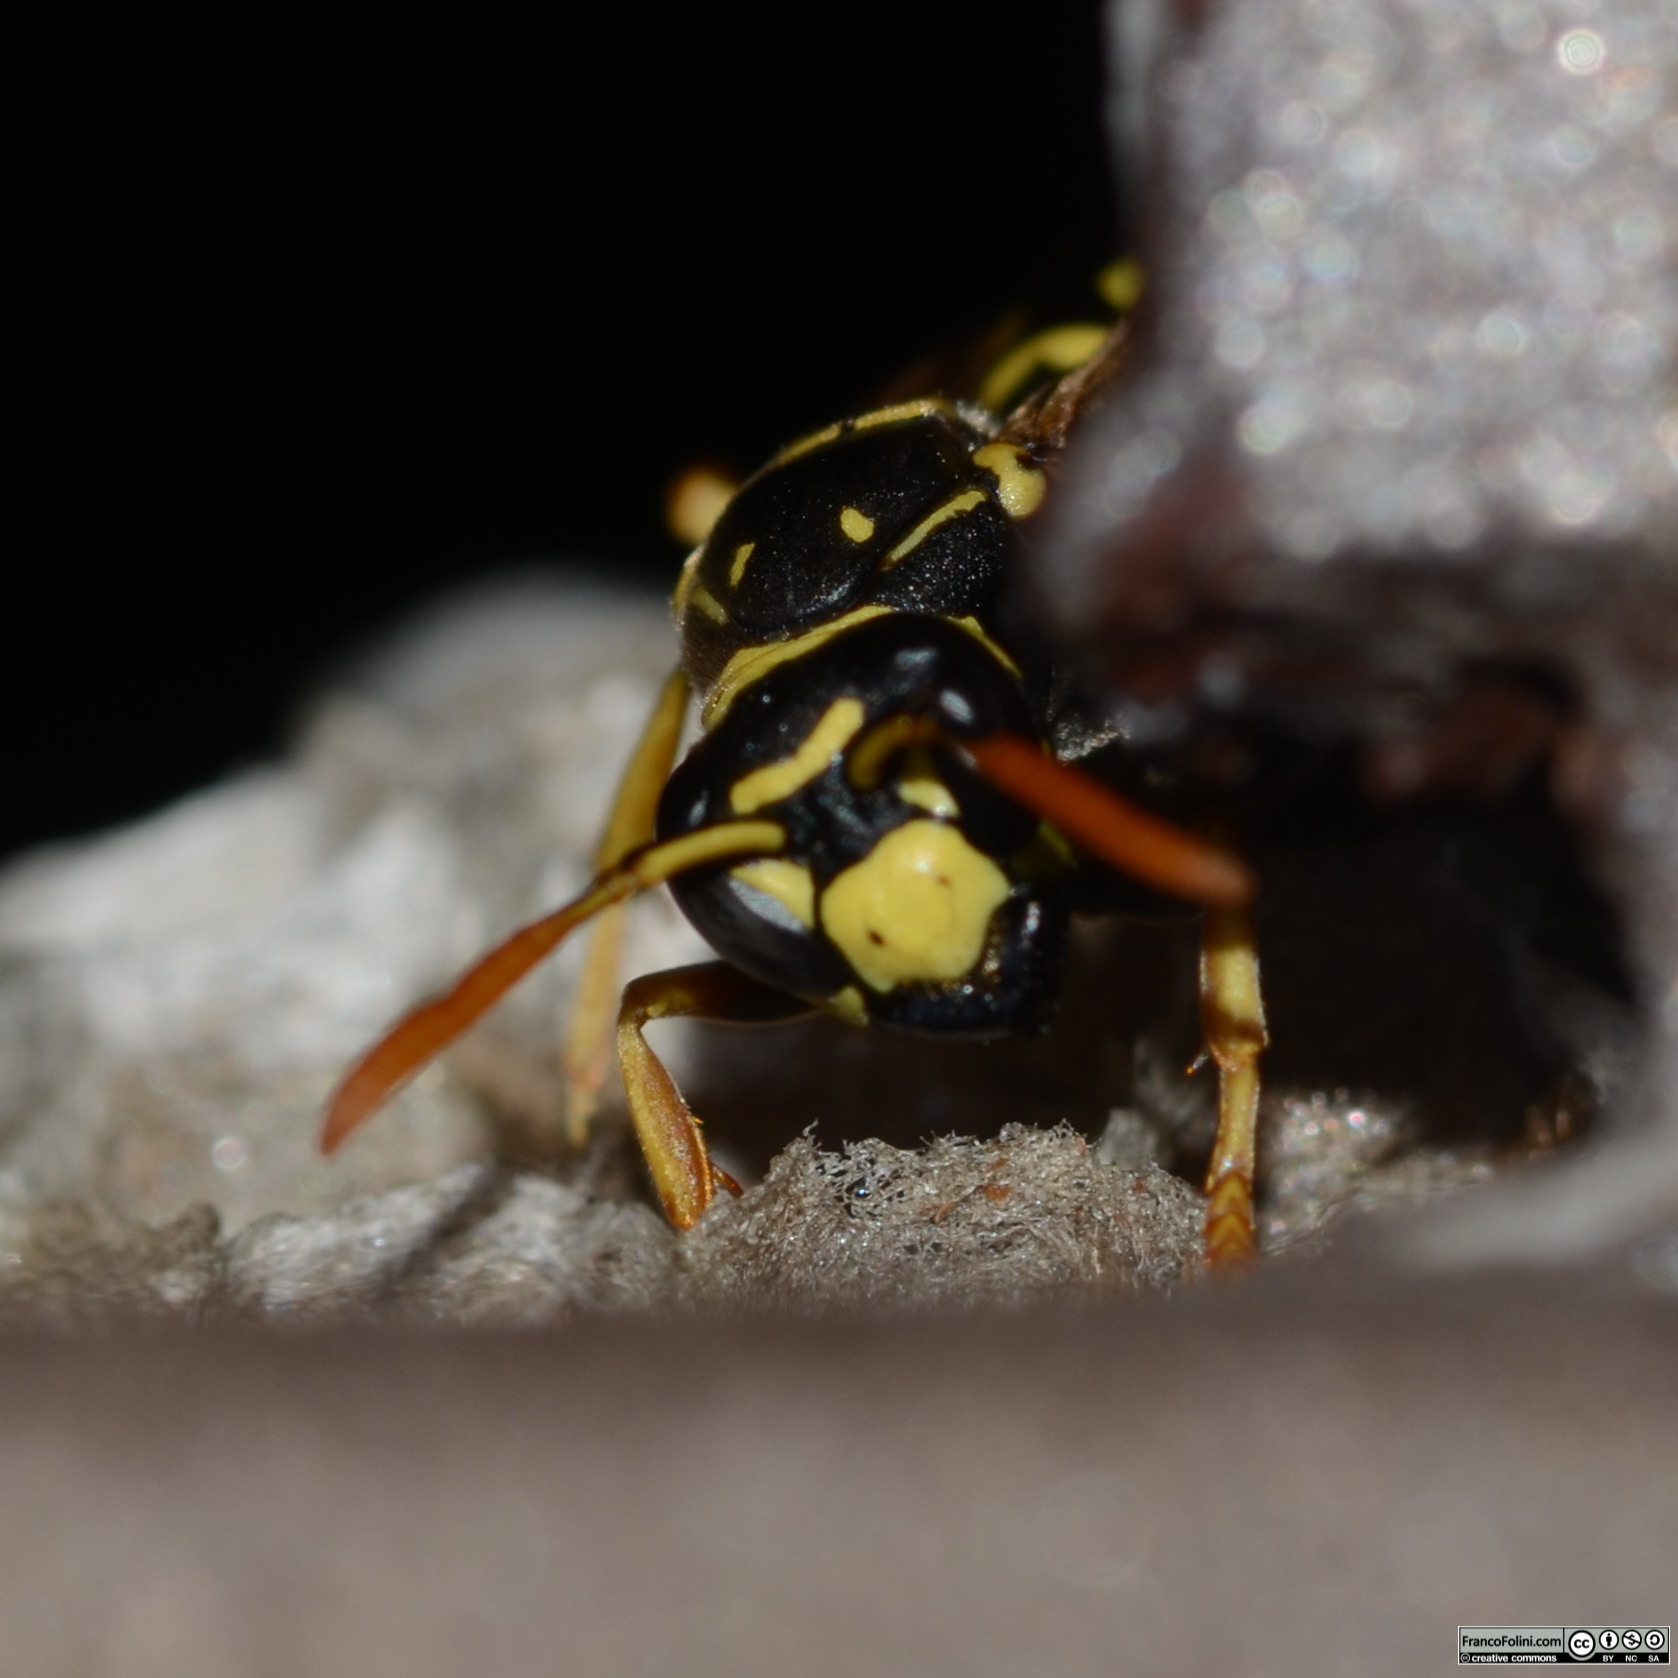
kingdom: Animalia
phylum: Arthropoda
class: Insecta
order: Hymenoptera
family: Eumenidae
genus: Polistes
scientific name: Polistes dominula
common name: Paper wasp
